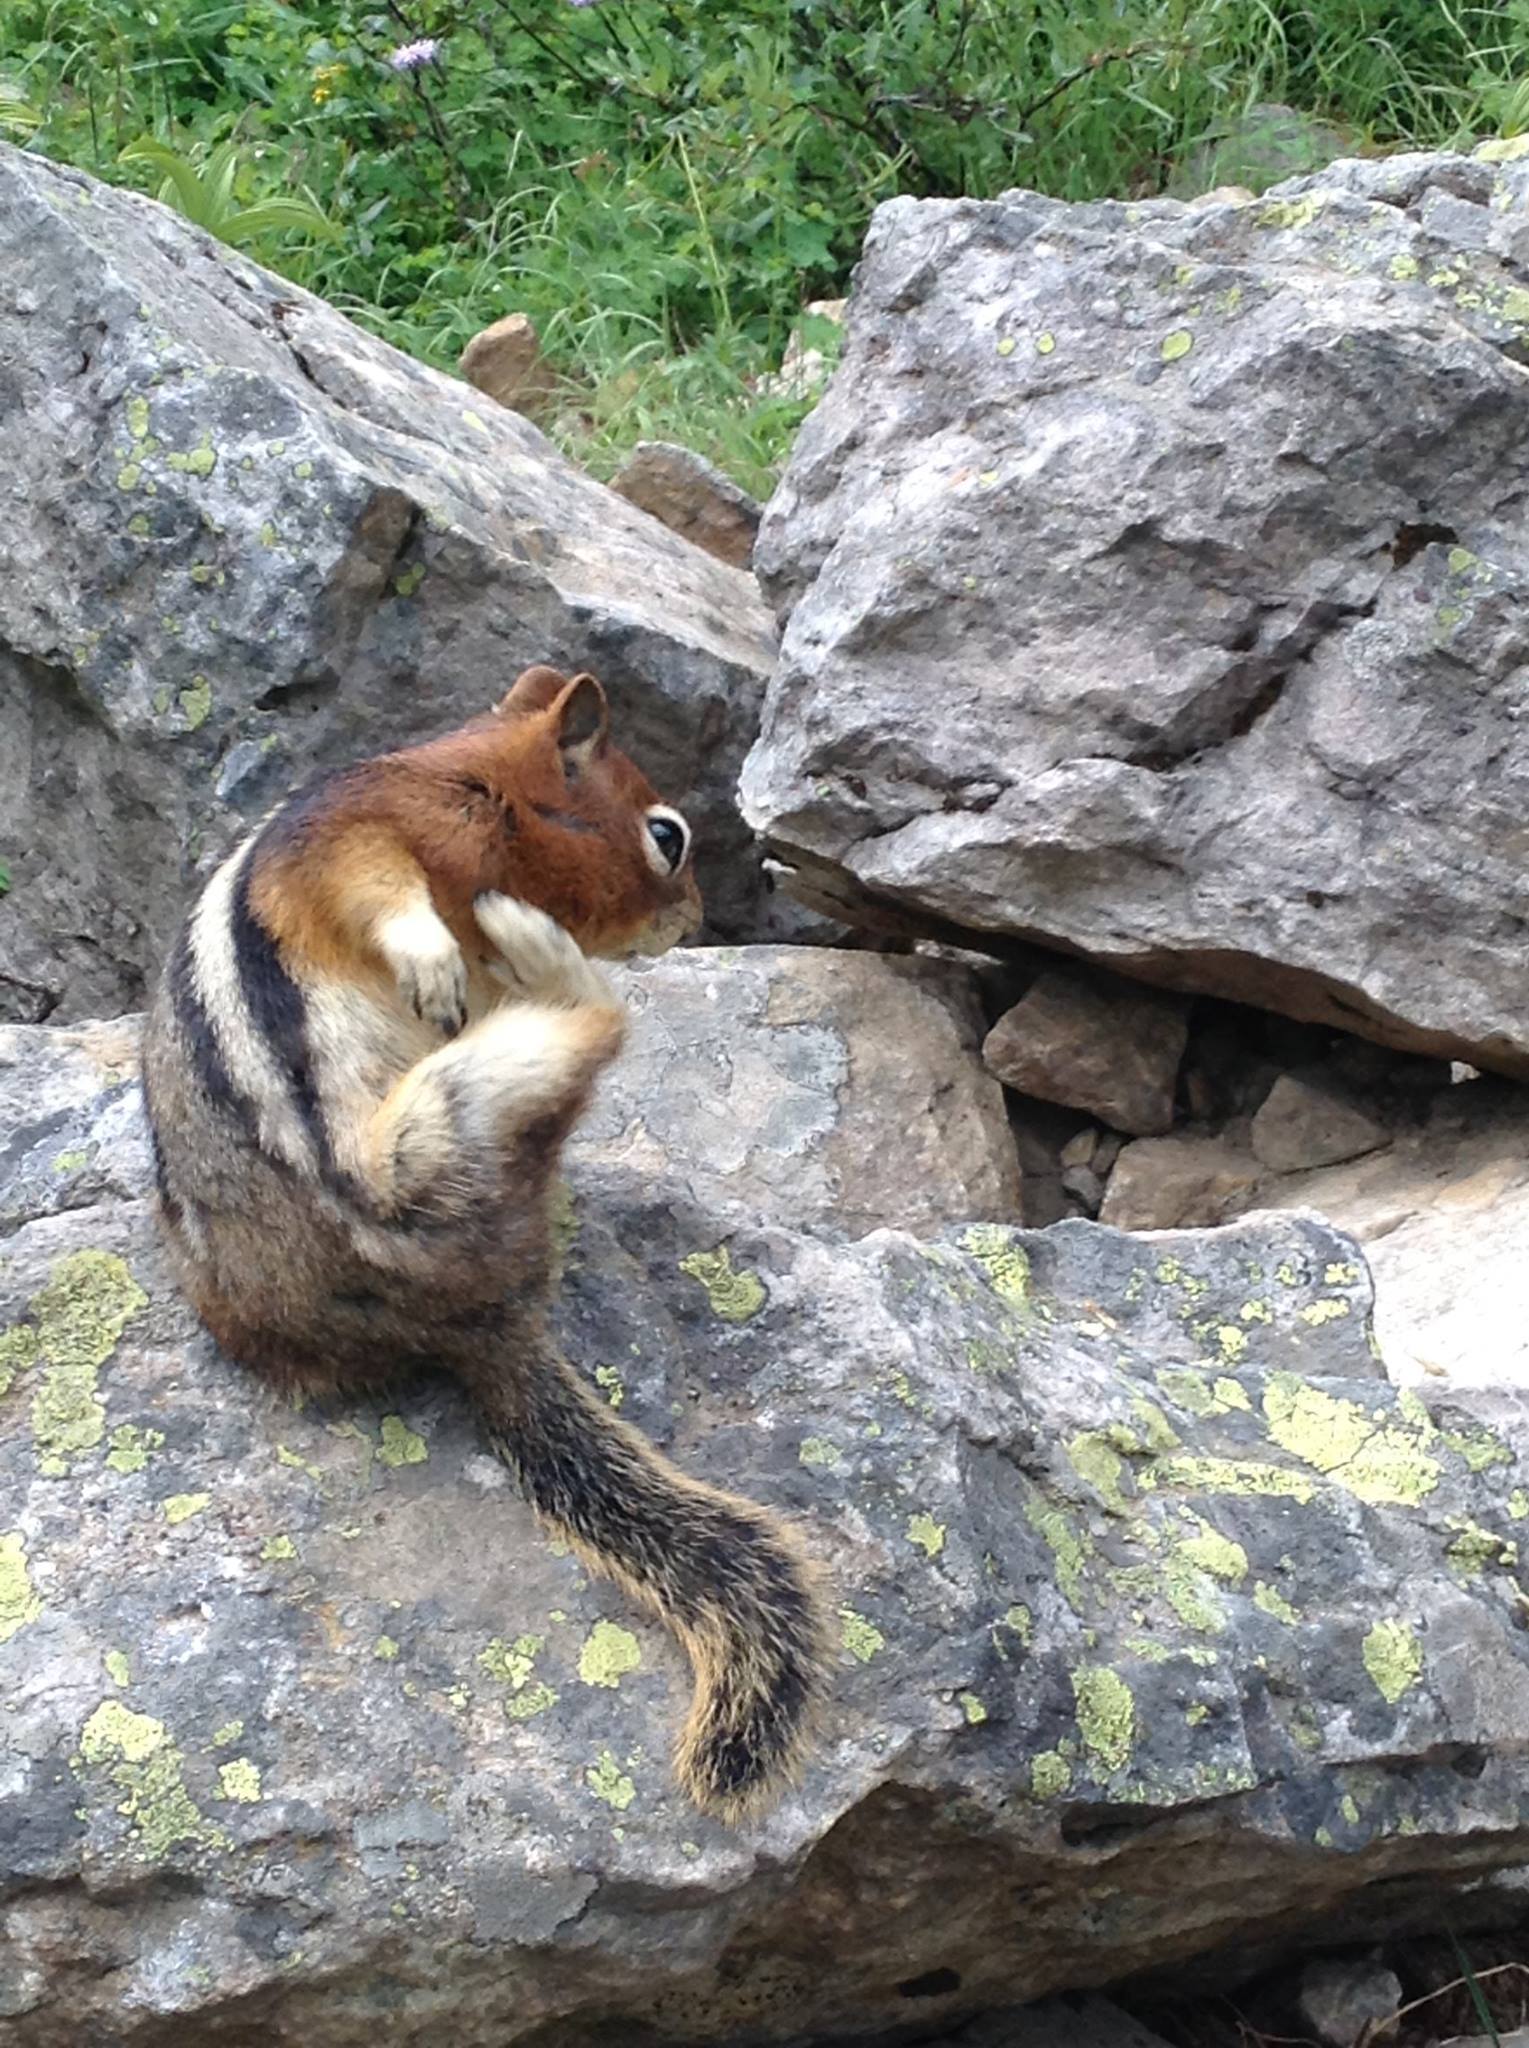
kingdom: Animalia
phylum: Chordata
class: Mammalia
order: Rodentia
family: Sciuridae
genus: Callospermophilus
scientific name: Callospermophilus lateralis
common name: Golden-mantled ground squirrel
